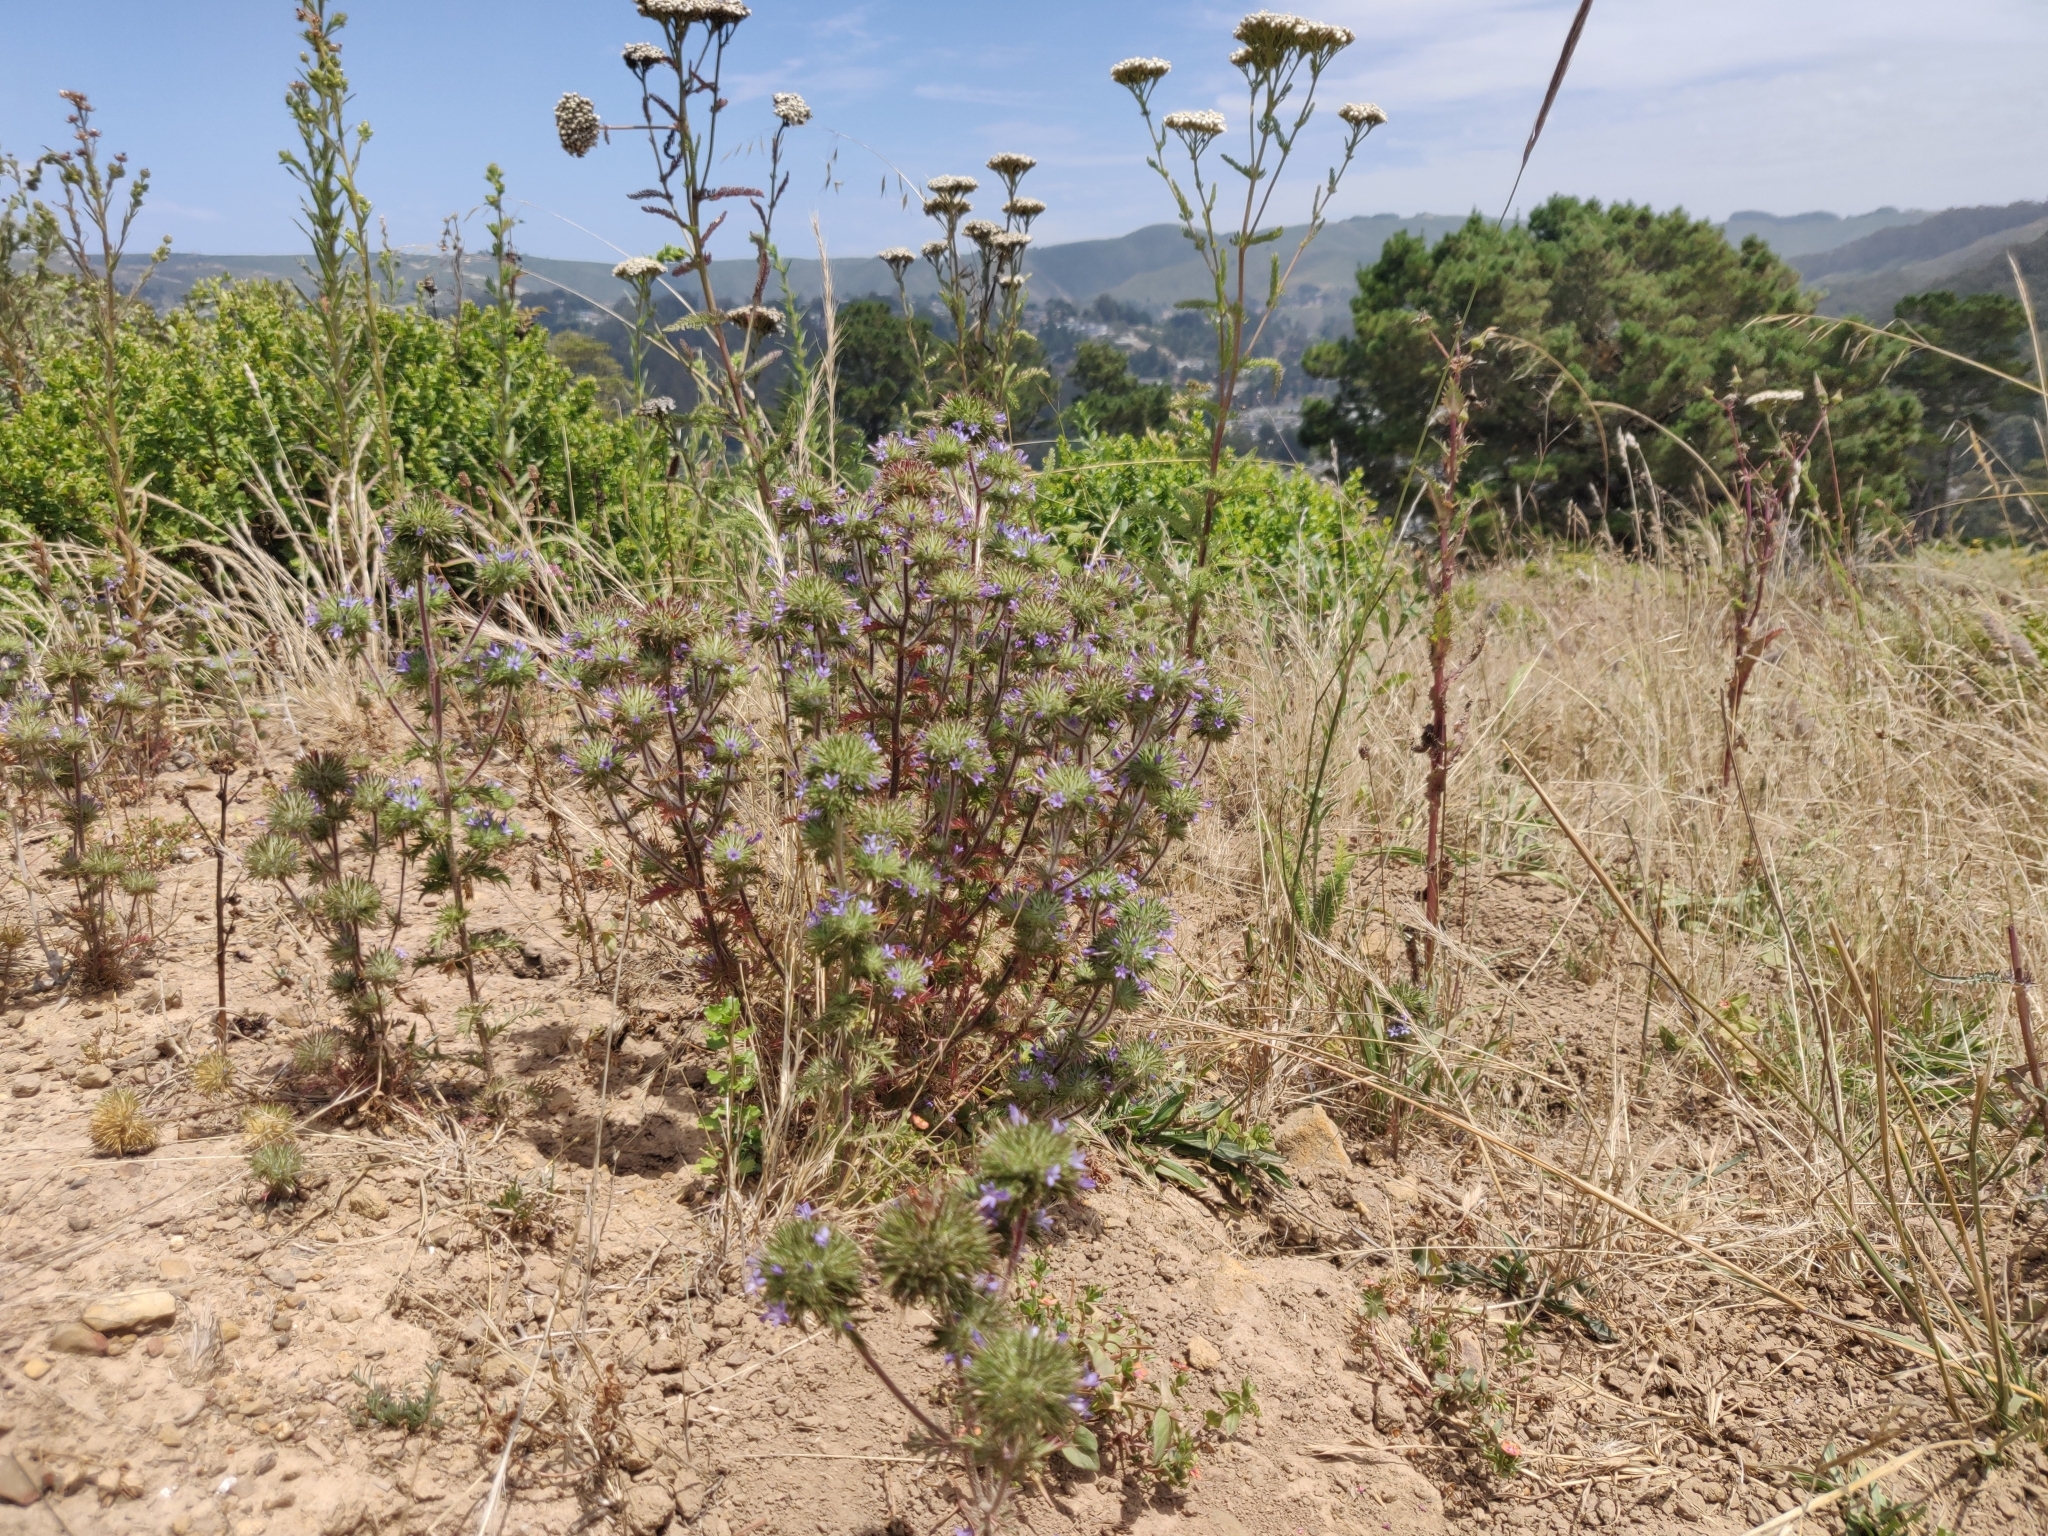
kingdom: Plantae
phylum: Tracheophyta
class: Magnoliopsida
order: Ericales
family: Polemoniaceae
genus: Navarretia
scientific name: Navarretia squarrosa
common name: Skunkweed
